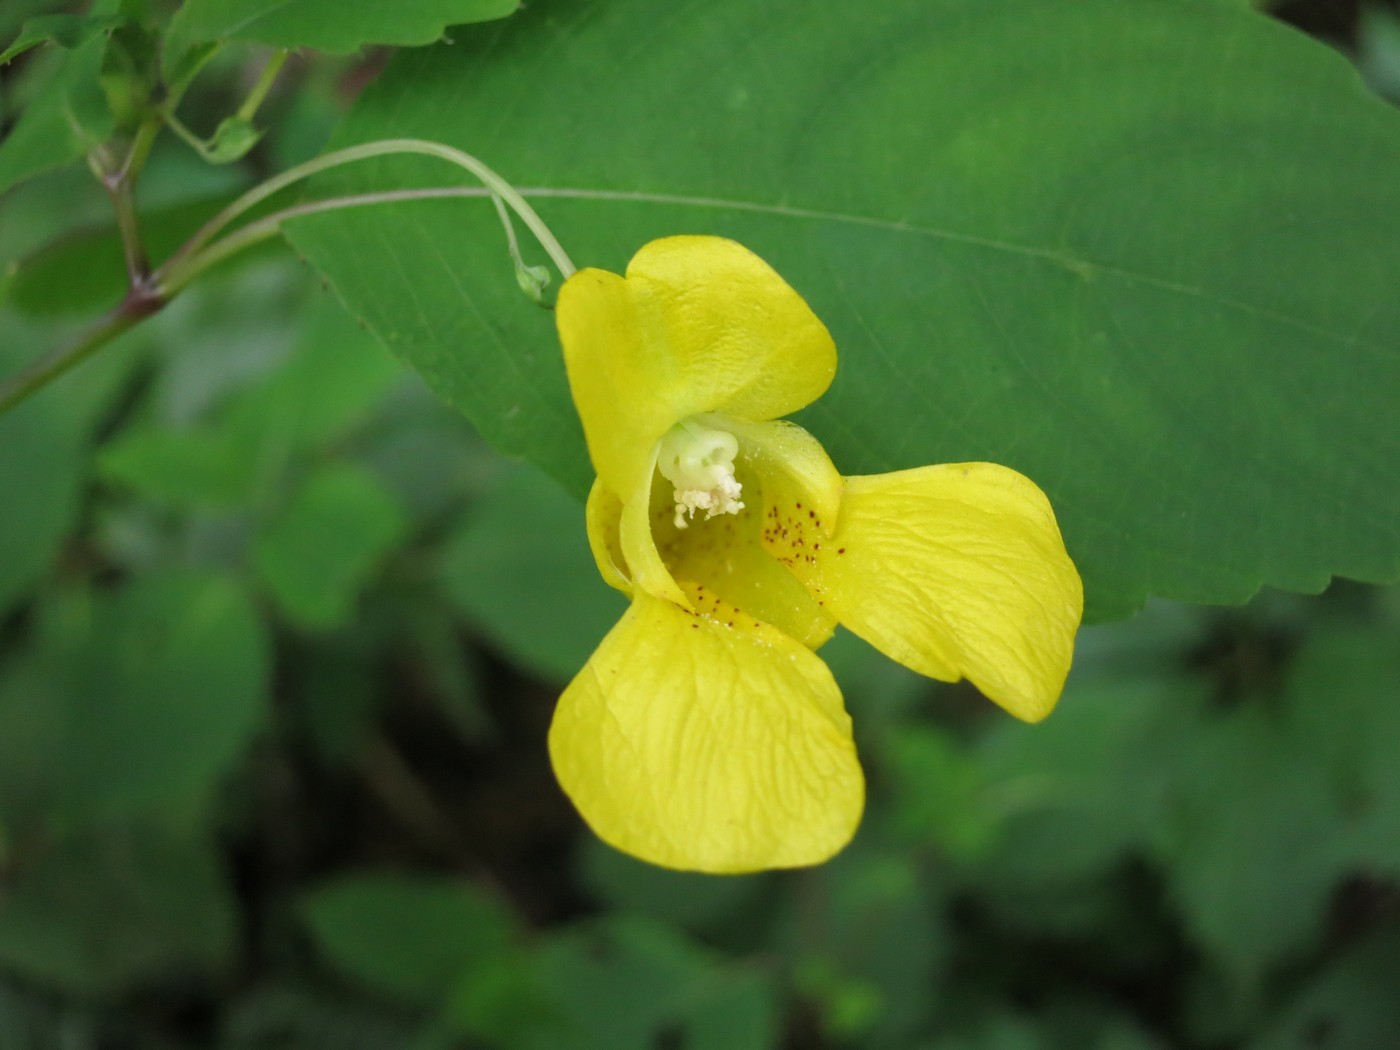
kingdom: Plantae
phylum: Tracheophyta
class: Magnoliopsida
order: Ericales
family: Balsaminaceae
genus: Impatiens
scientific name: Impatiens pallida
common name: Pale snapweed
